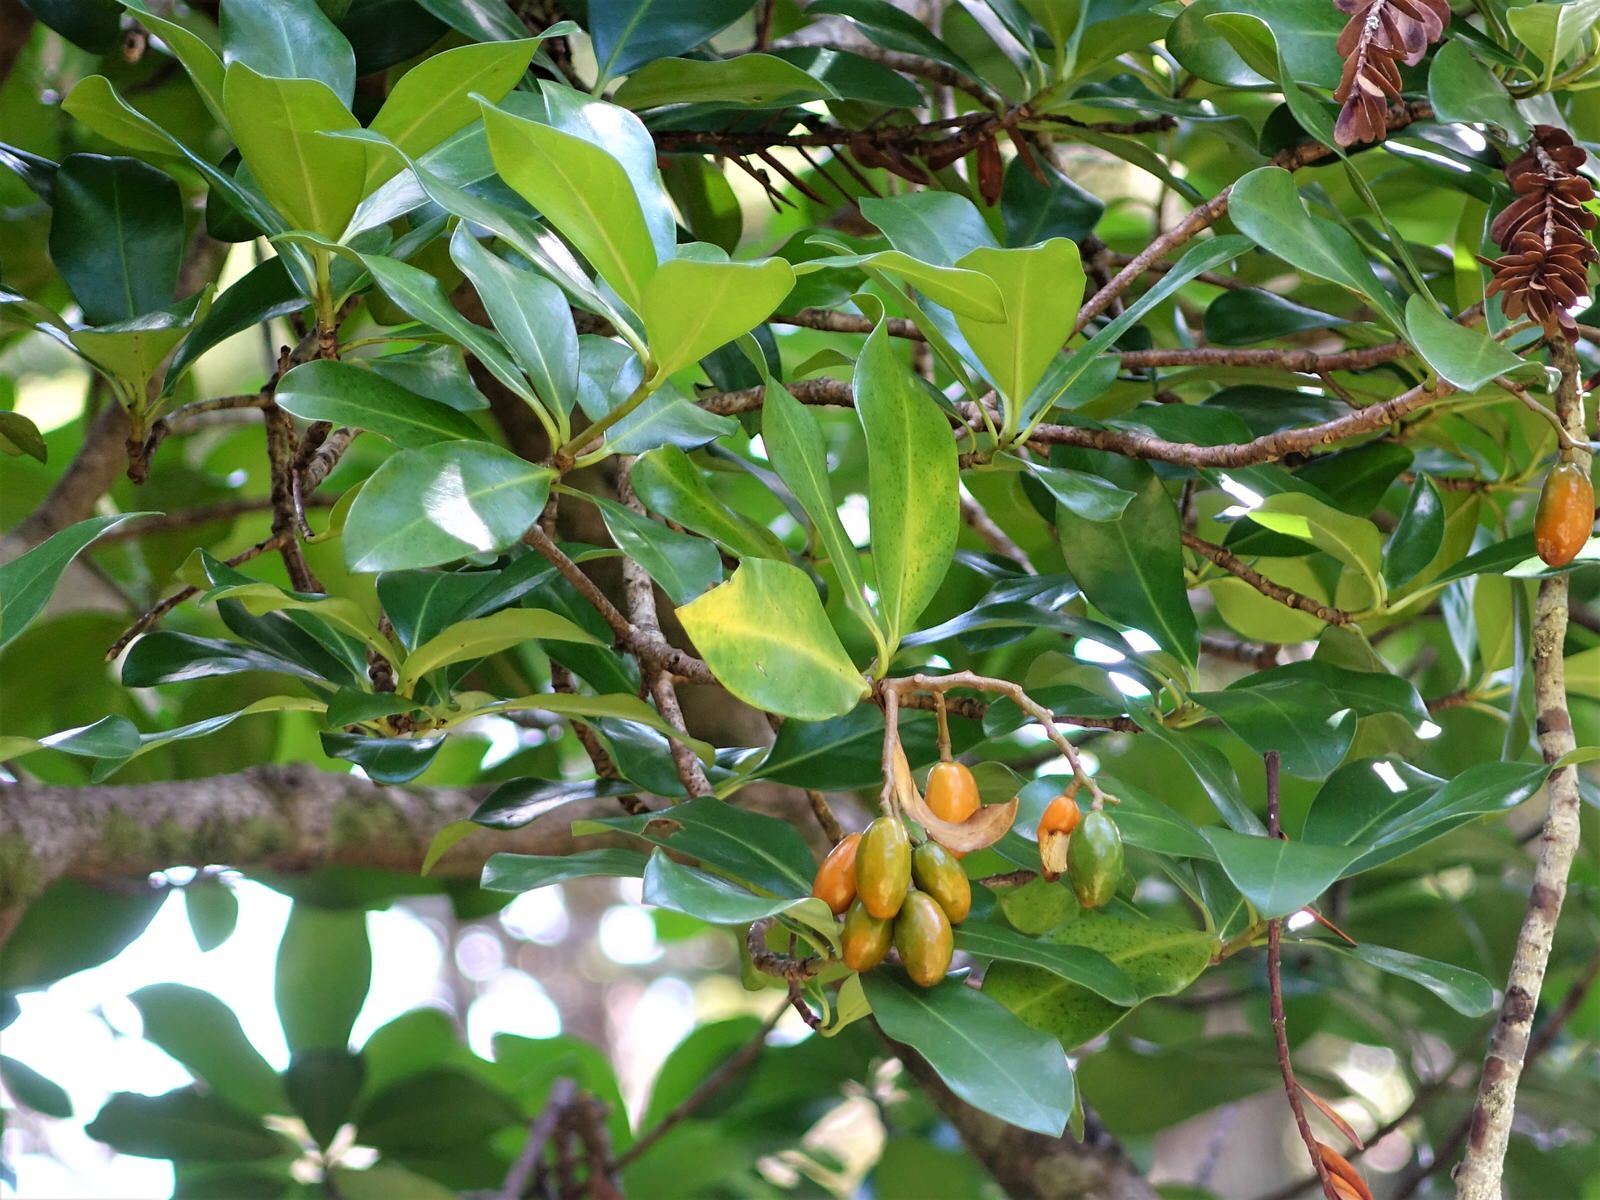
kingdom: Plantae
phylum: Tracheophyta
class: Magnoliopsida
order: Cucurbitales
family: Corynocarpaceae
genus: Corynocarpus
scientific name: Corynocarpus laevigatus
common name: New zealand laurel
